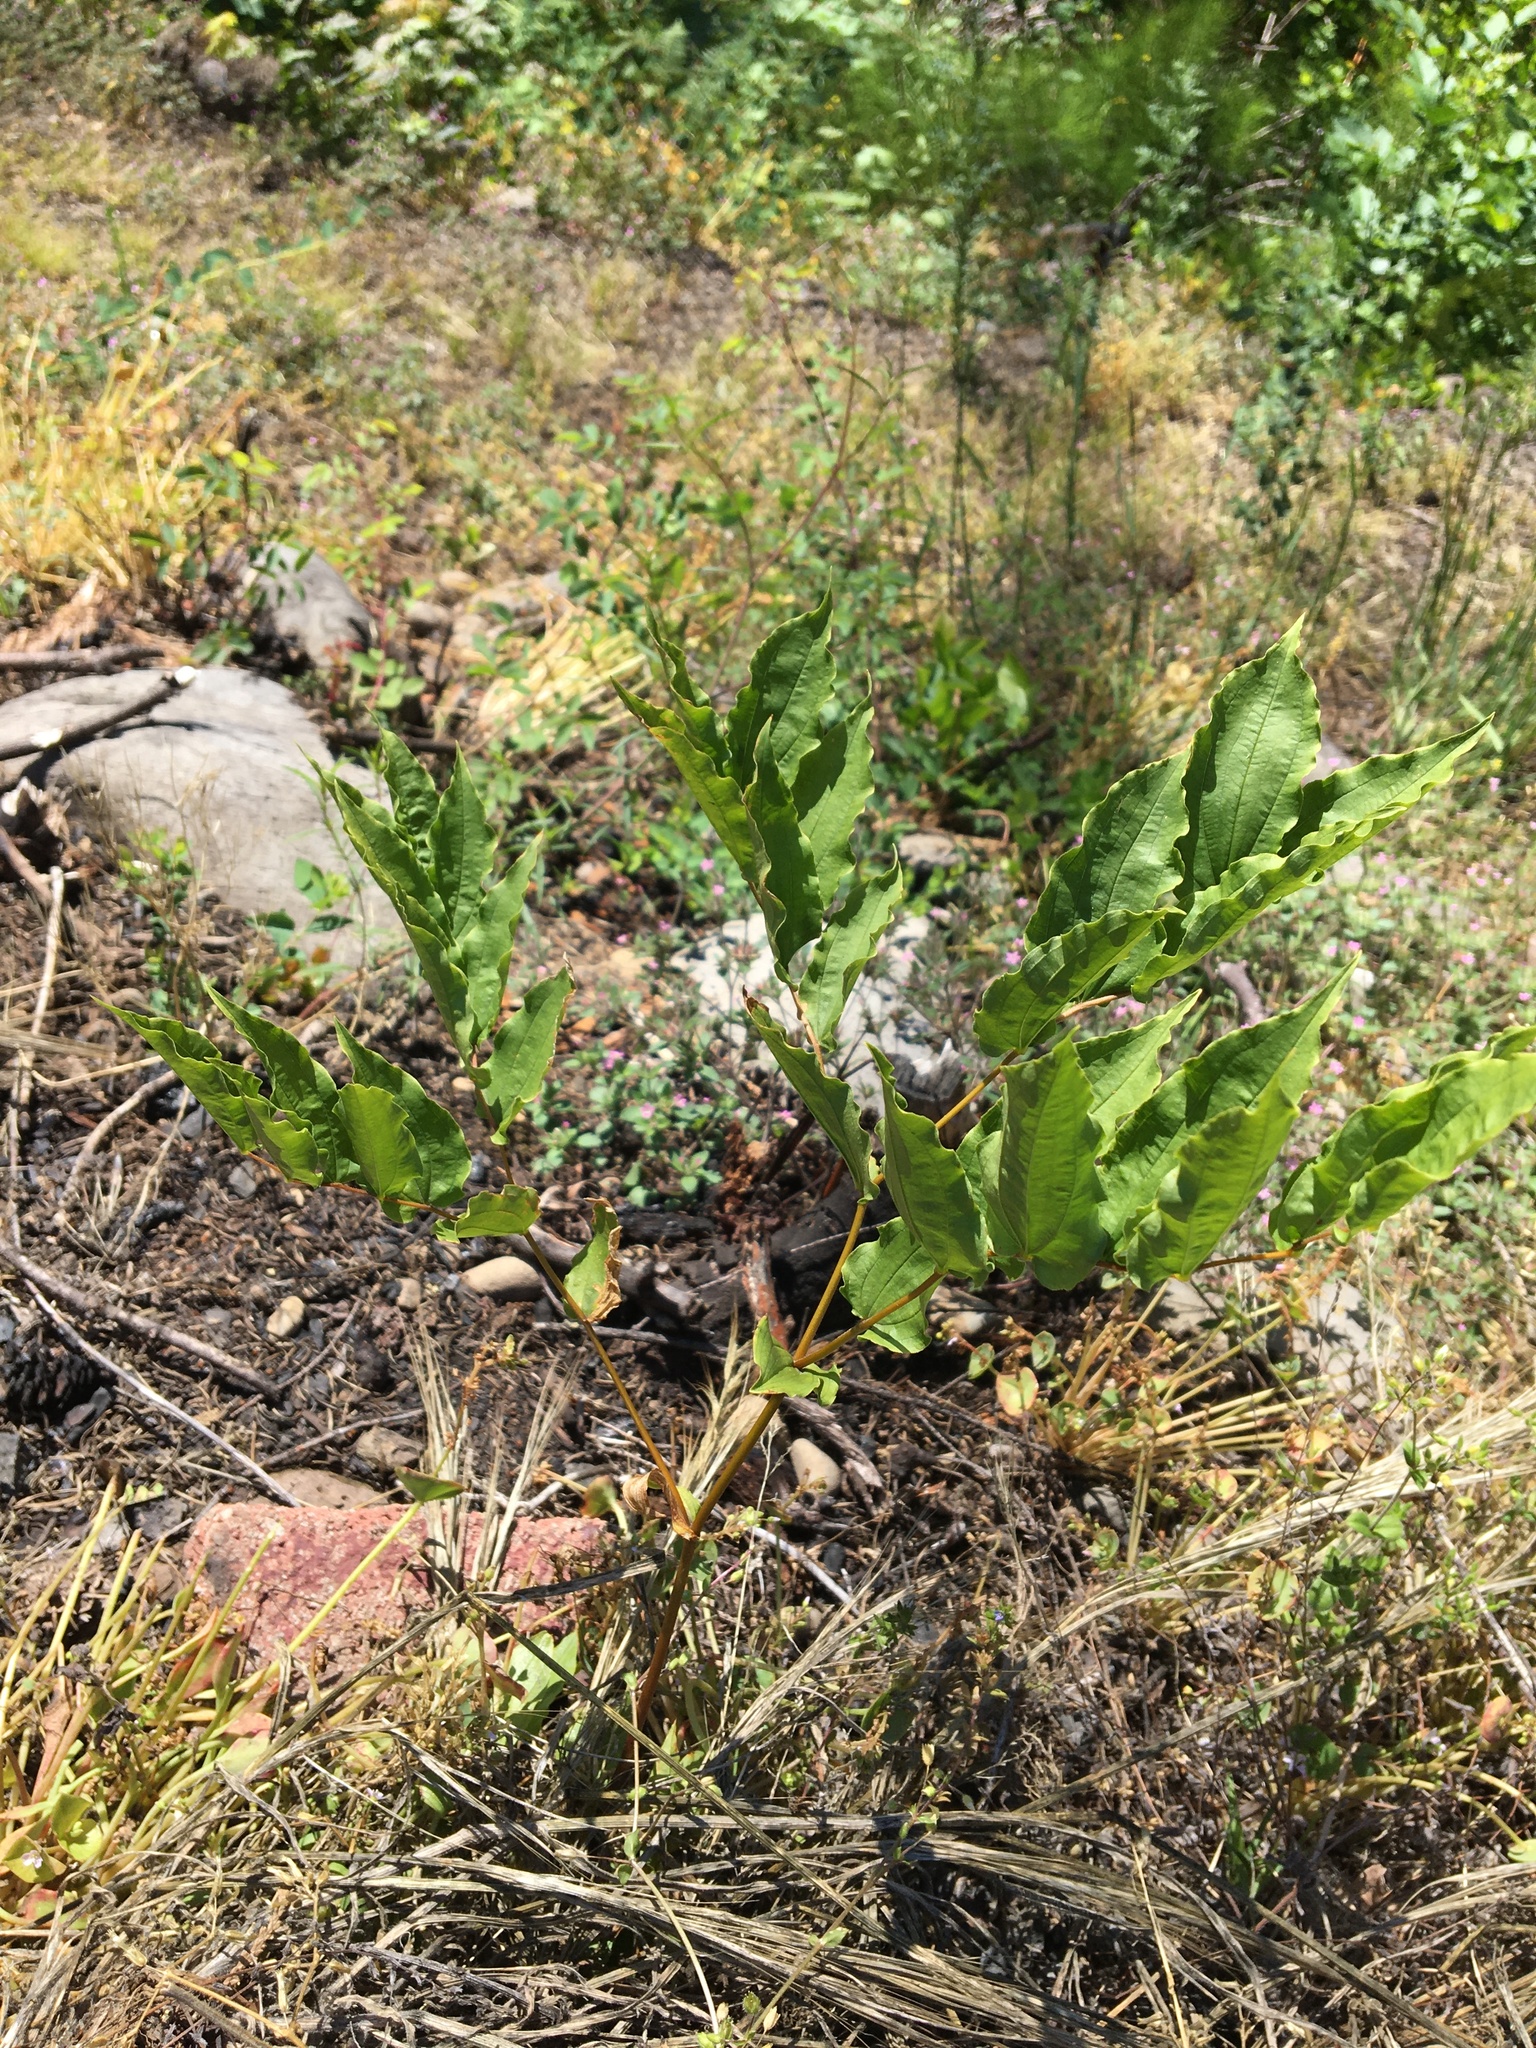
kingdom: Plantae
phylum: Tracheophyta
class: Liliopsida
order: Liliales
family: Liliaceae
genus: Prosartes
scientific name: Prosartes hookeri
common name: Fairy-bells
